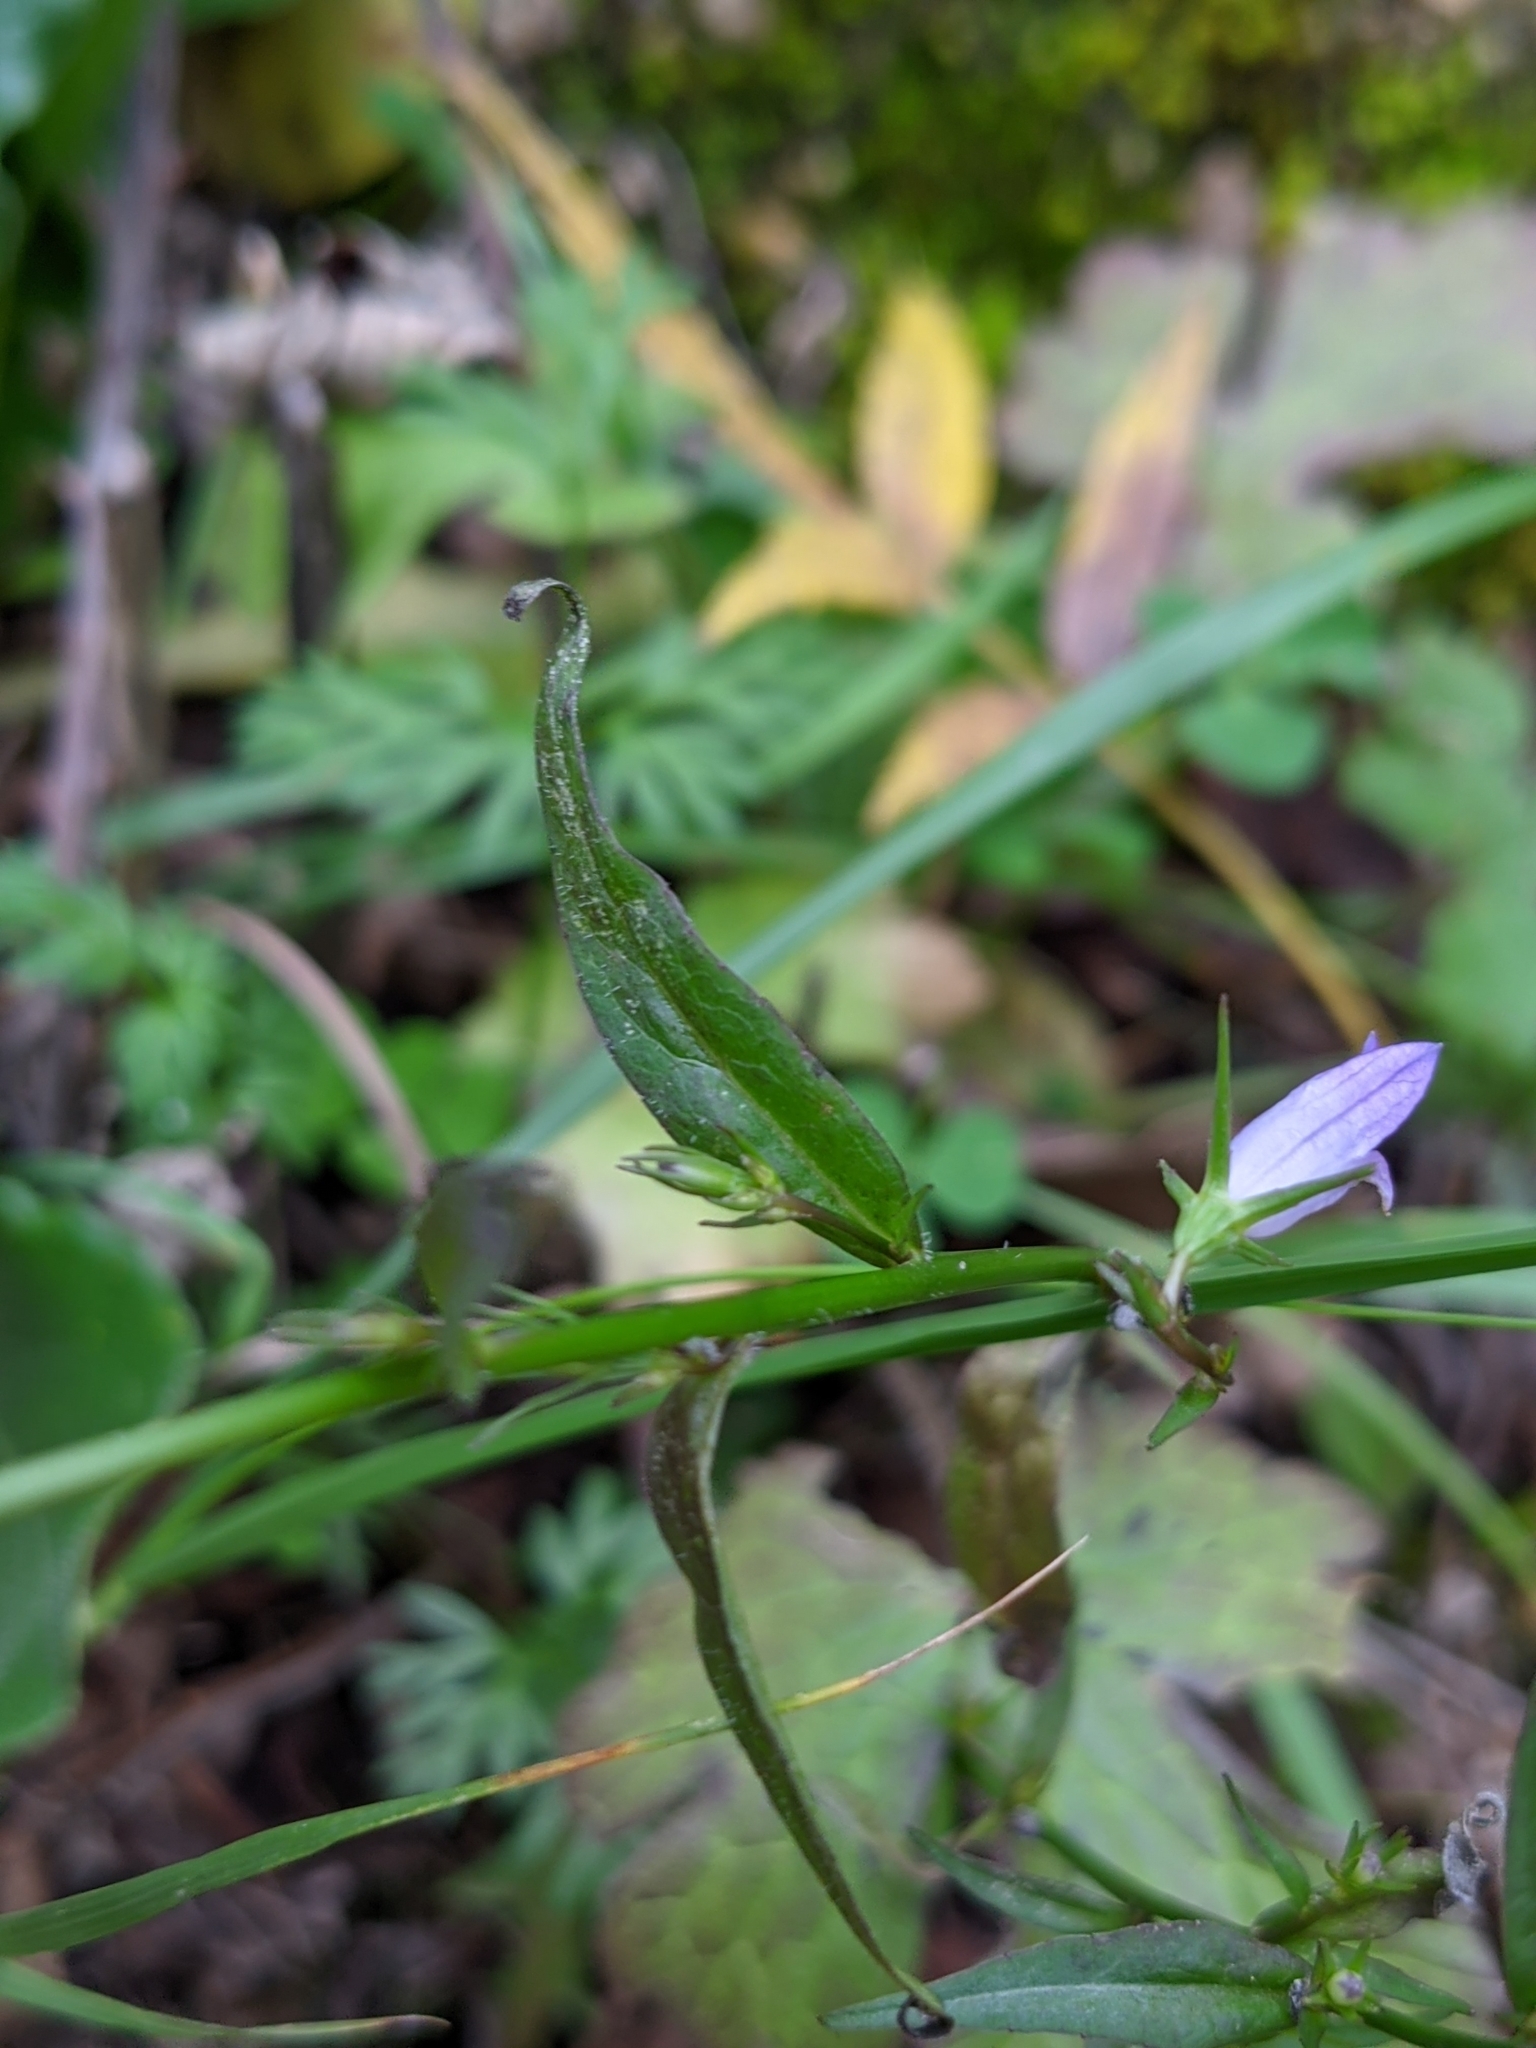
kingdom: Plantae
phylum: Tracheophyta
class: Magnoliopsida
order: Asterales
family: Campanulaceae
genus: Campanula
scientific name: Campanula rapunculus
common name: Rampion bellflower
